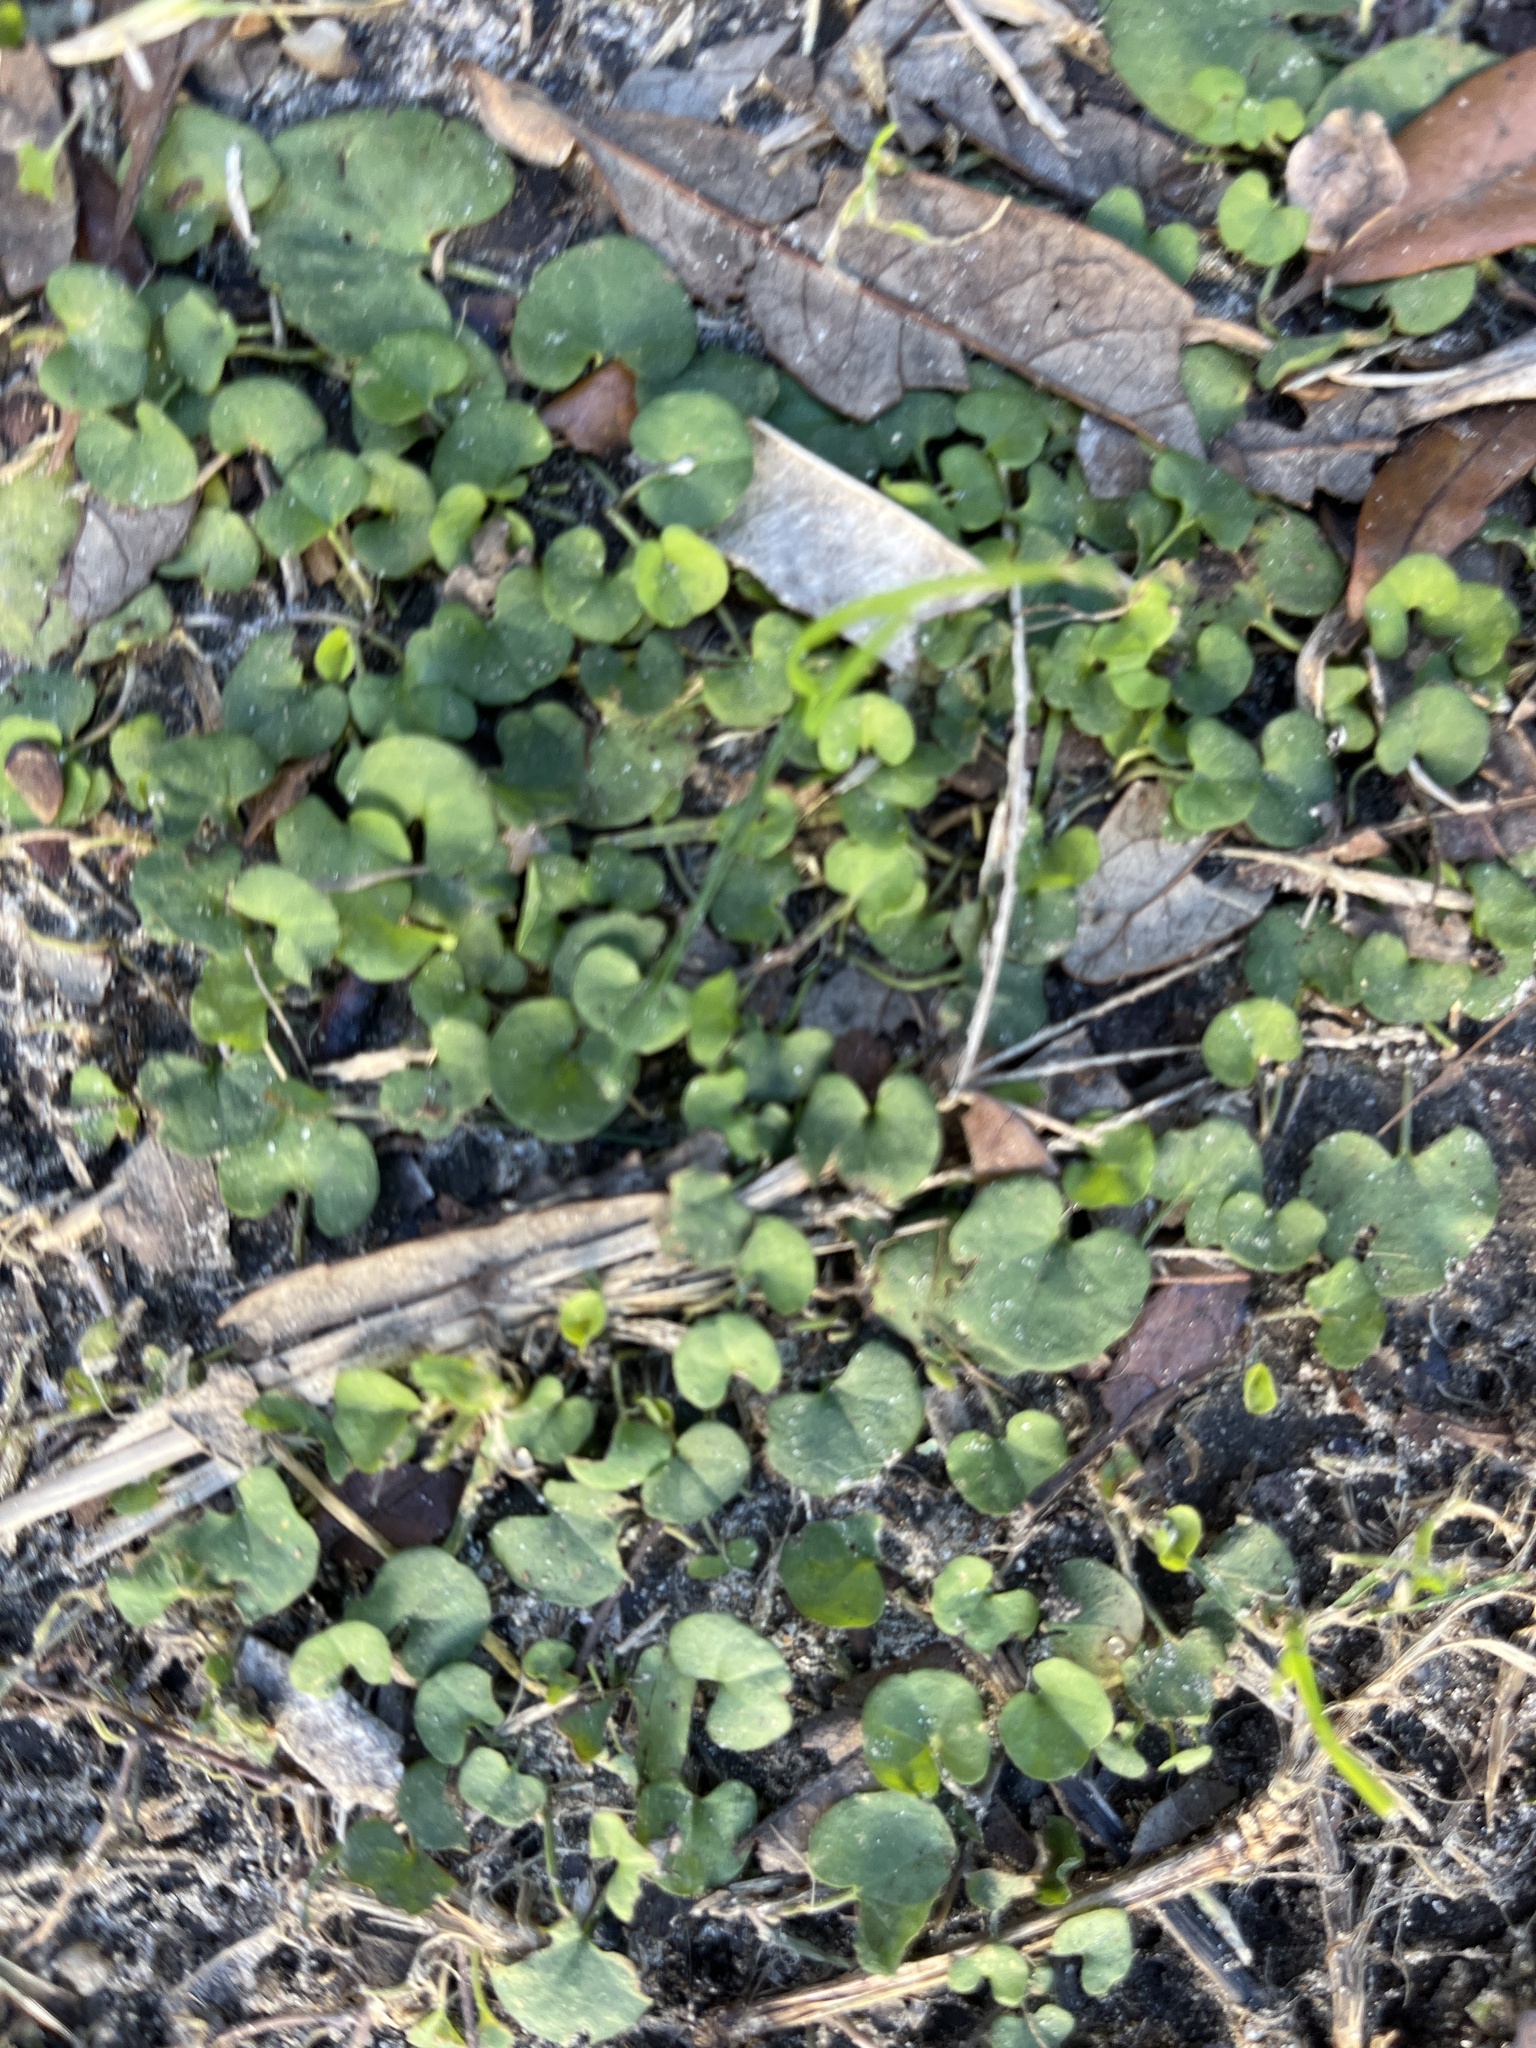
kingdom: Plantae
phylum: Tracheophyta
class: Magnoliopsida
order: Solanales
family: Convolvulaceae
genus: Dichondra
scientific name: Dichondra carolinensis
